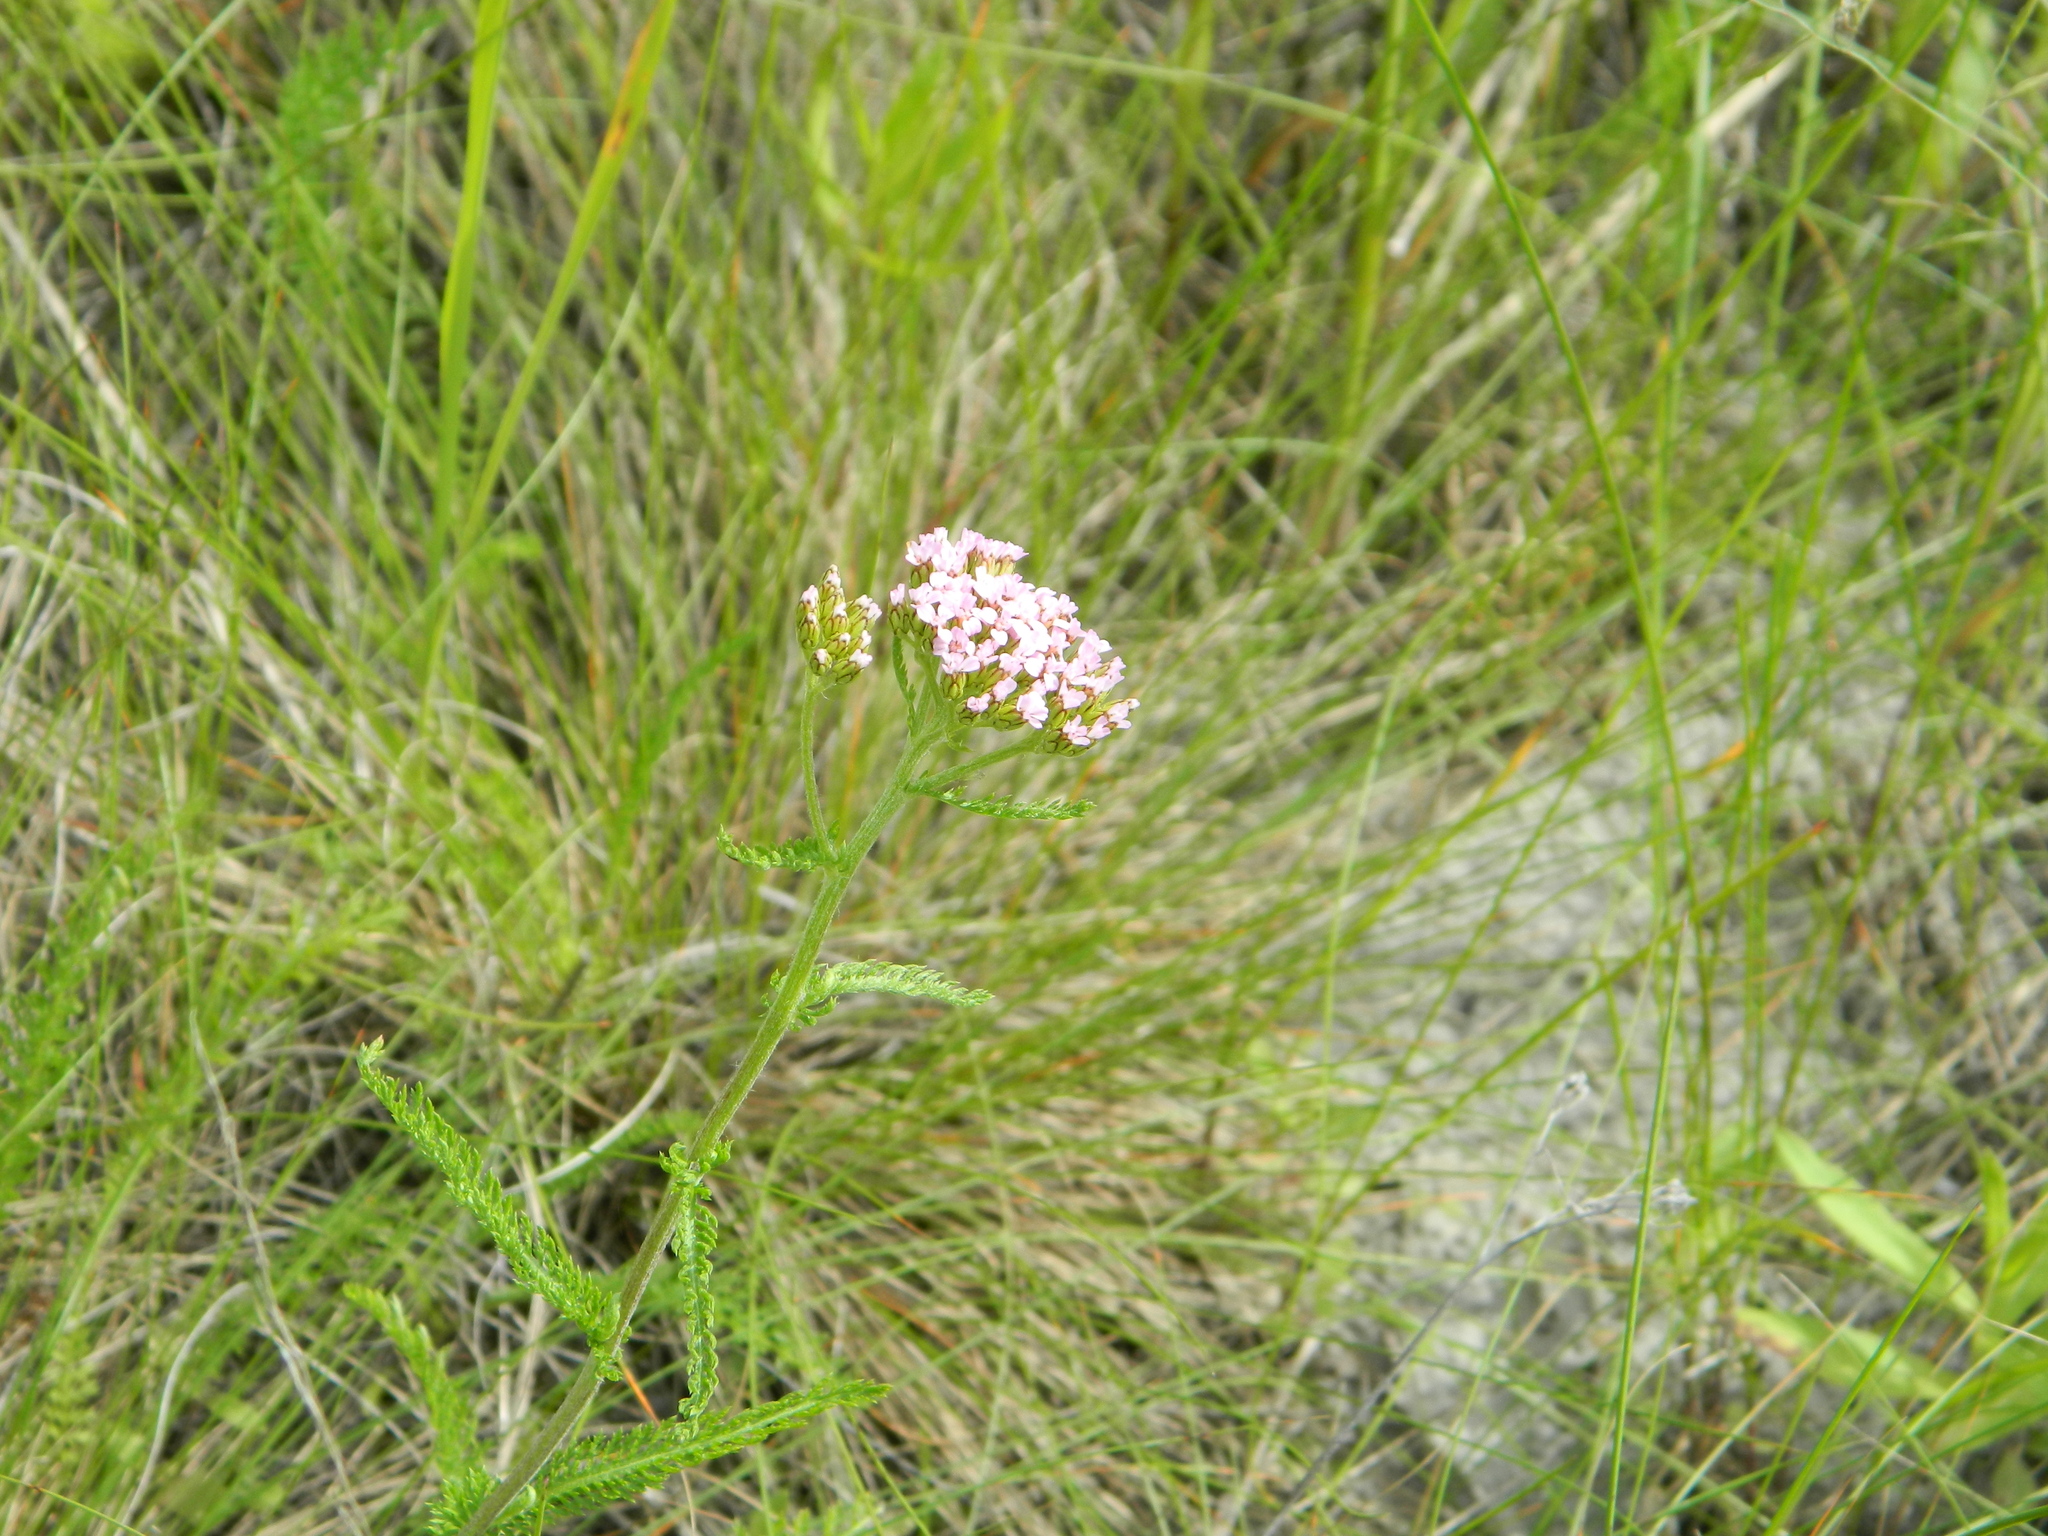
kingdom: Plantae
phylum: Tracheophyta
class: Magnoliopsida
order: Asterales
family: Asteraceae
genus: Achillea
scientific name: Achillea asiatica
